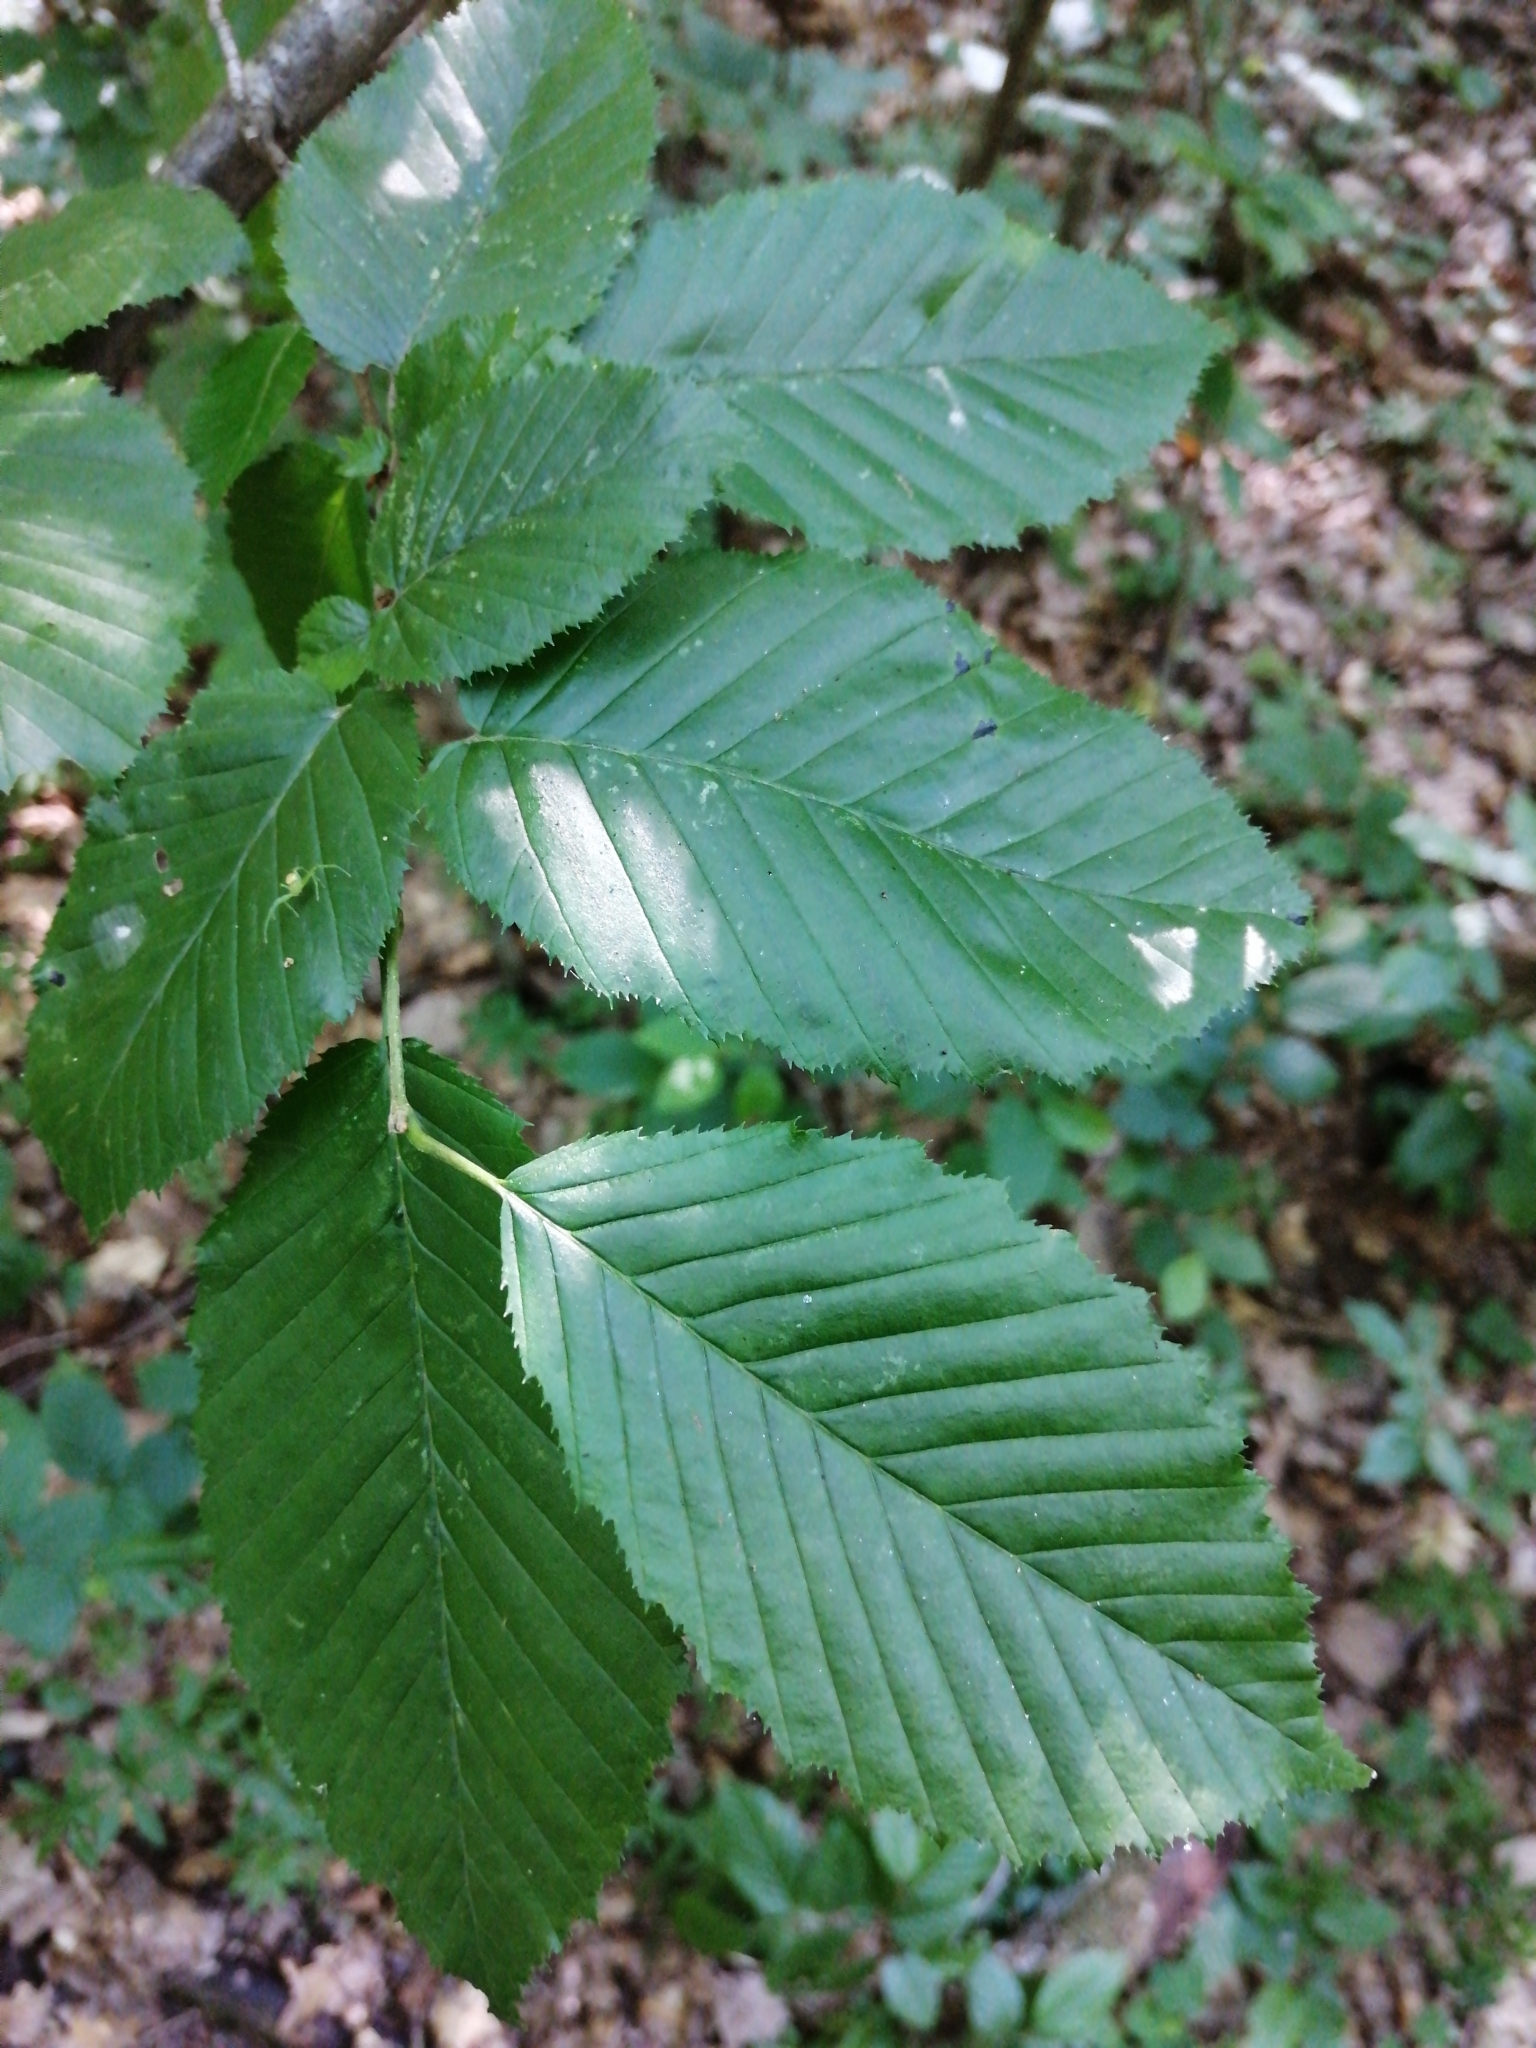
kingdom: Plantae
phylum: Tracheophyta
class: Magnoliopsida
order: Fagales
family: Betulaceae
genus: Carpinus
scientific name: Carpinus betulus
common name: Hornbeam
